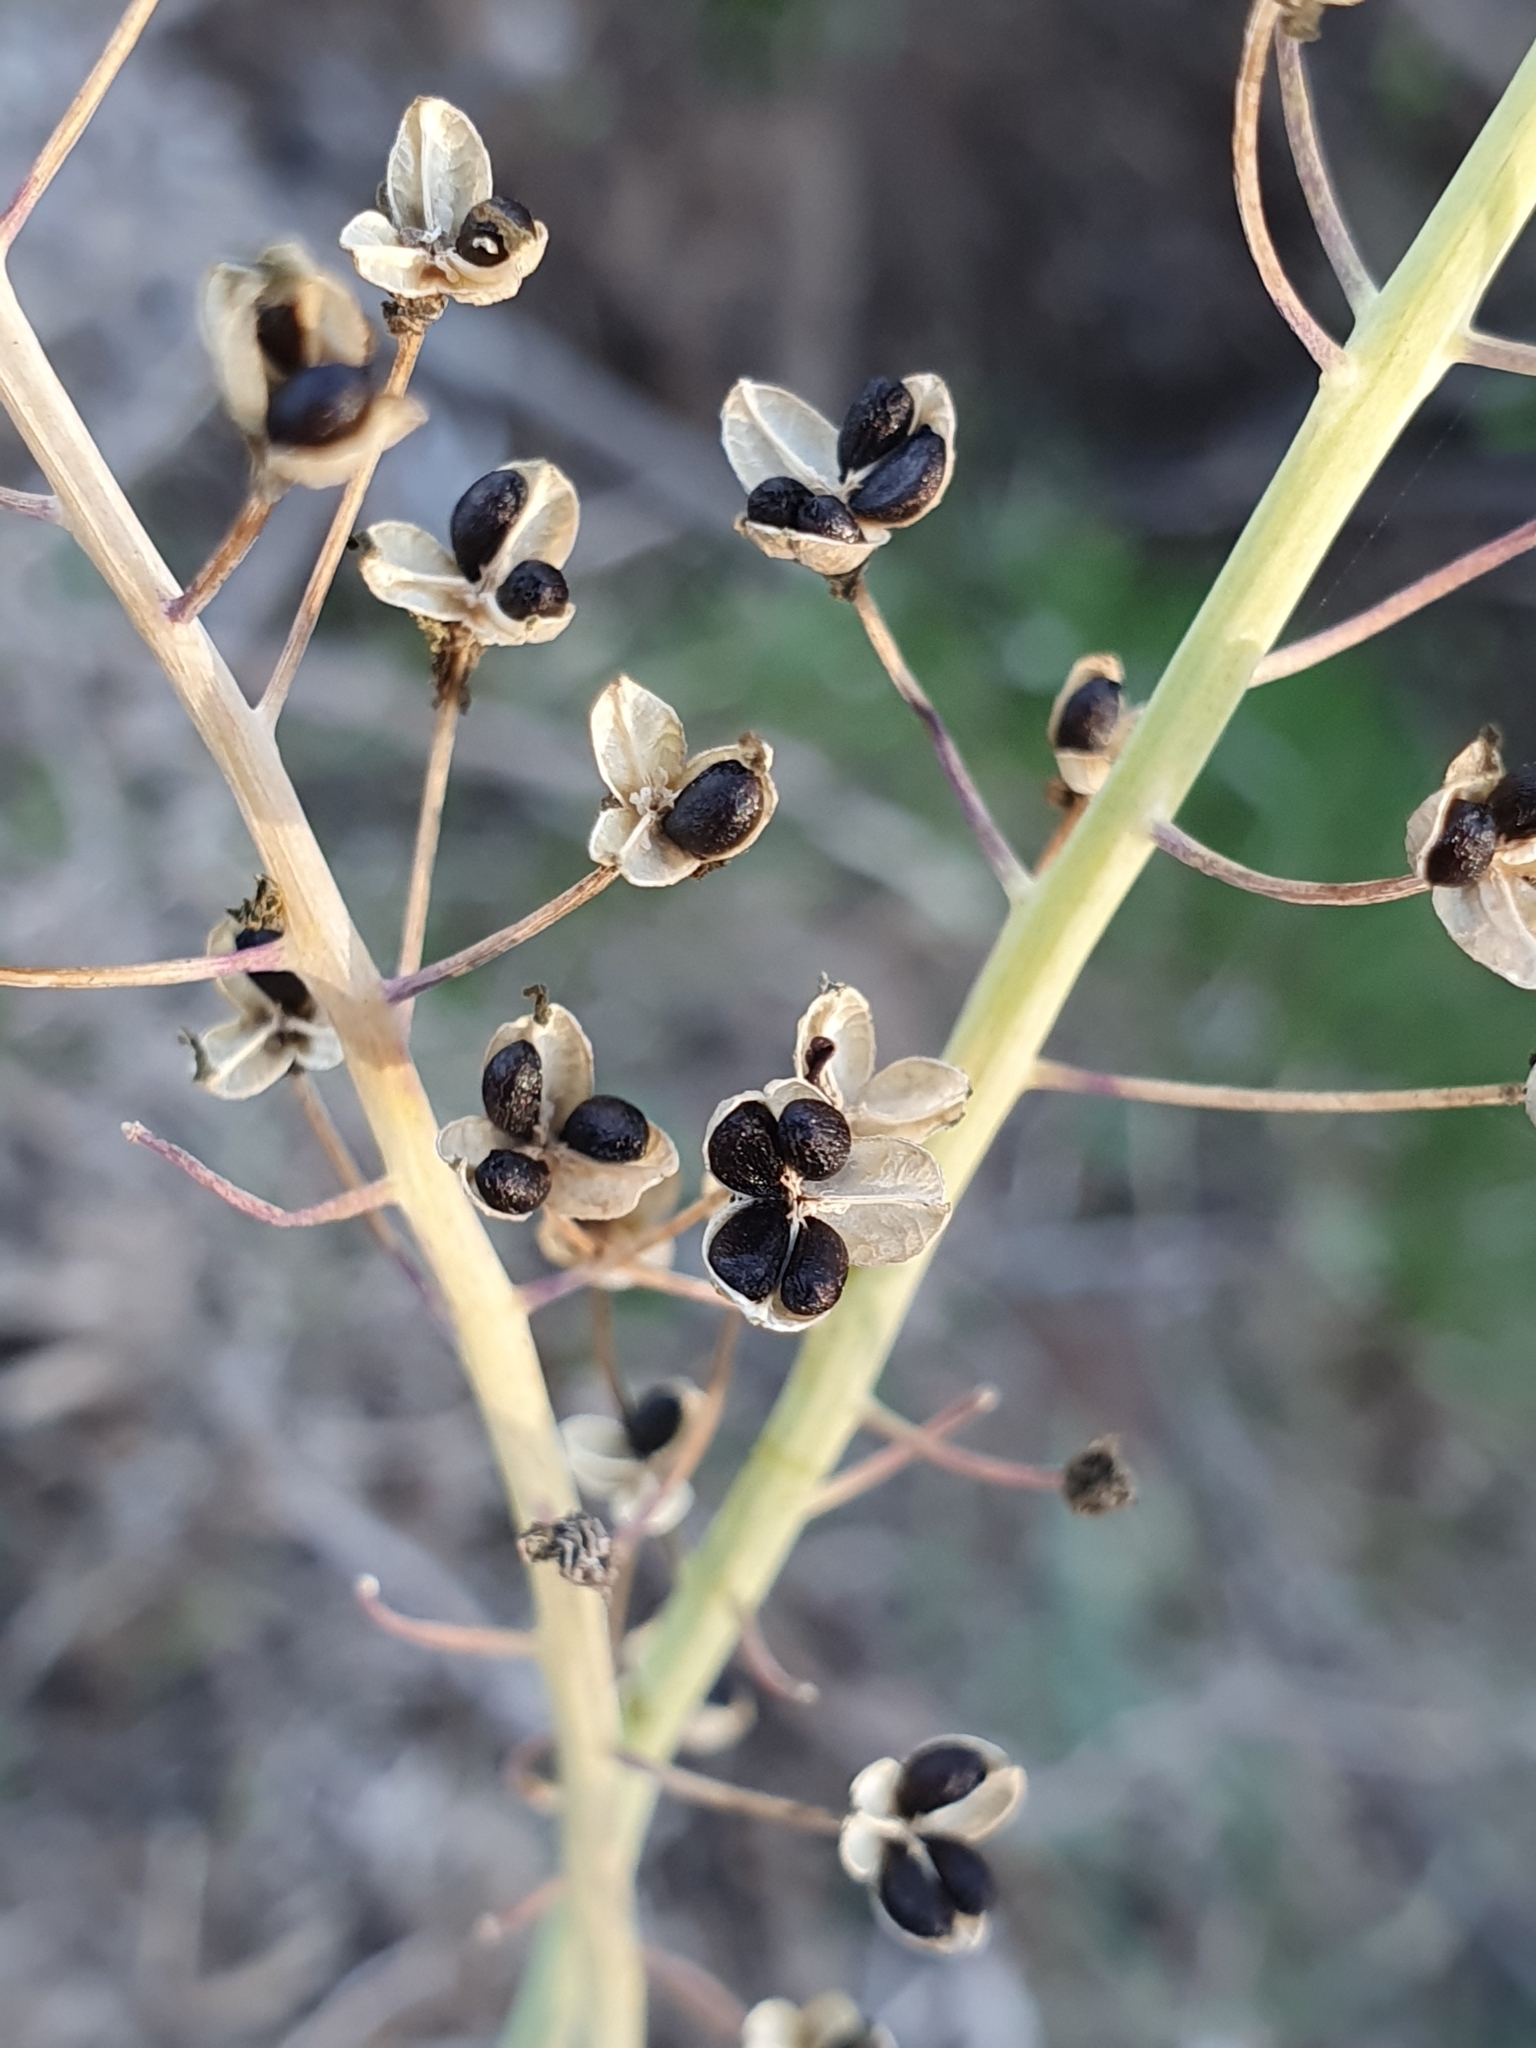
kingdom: Plantae
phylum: Tracheophyta
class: Liliopsida
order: Asparagales
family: Asparagaceae
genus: Prospero
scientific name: Prospero fallax
